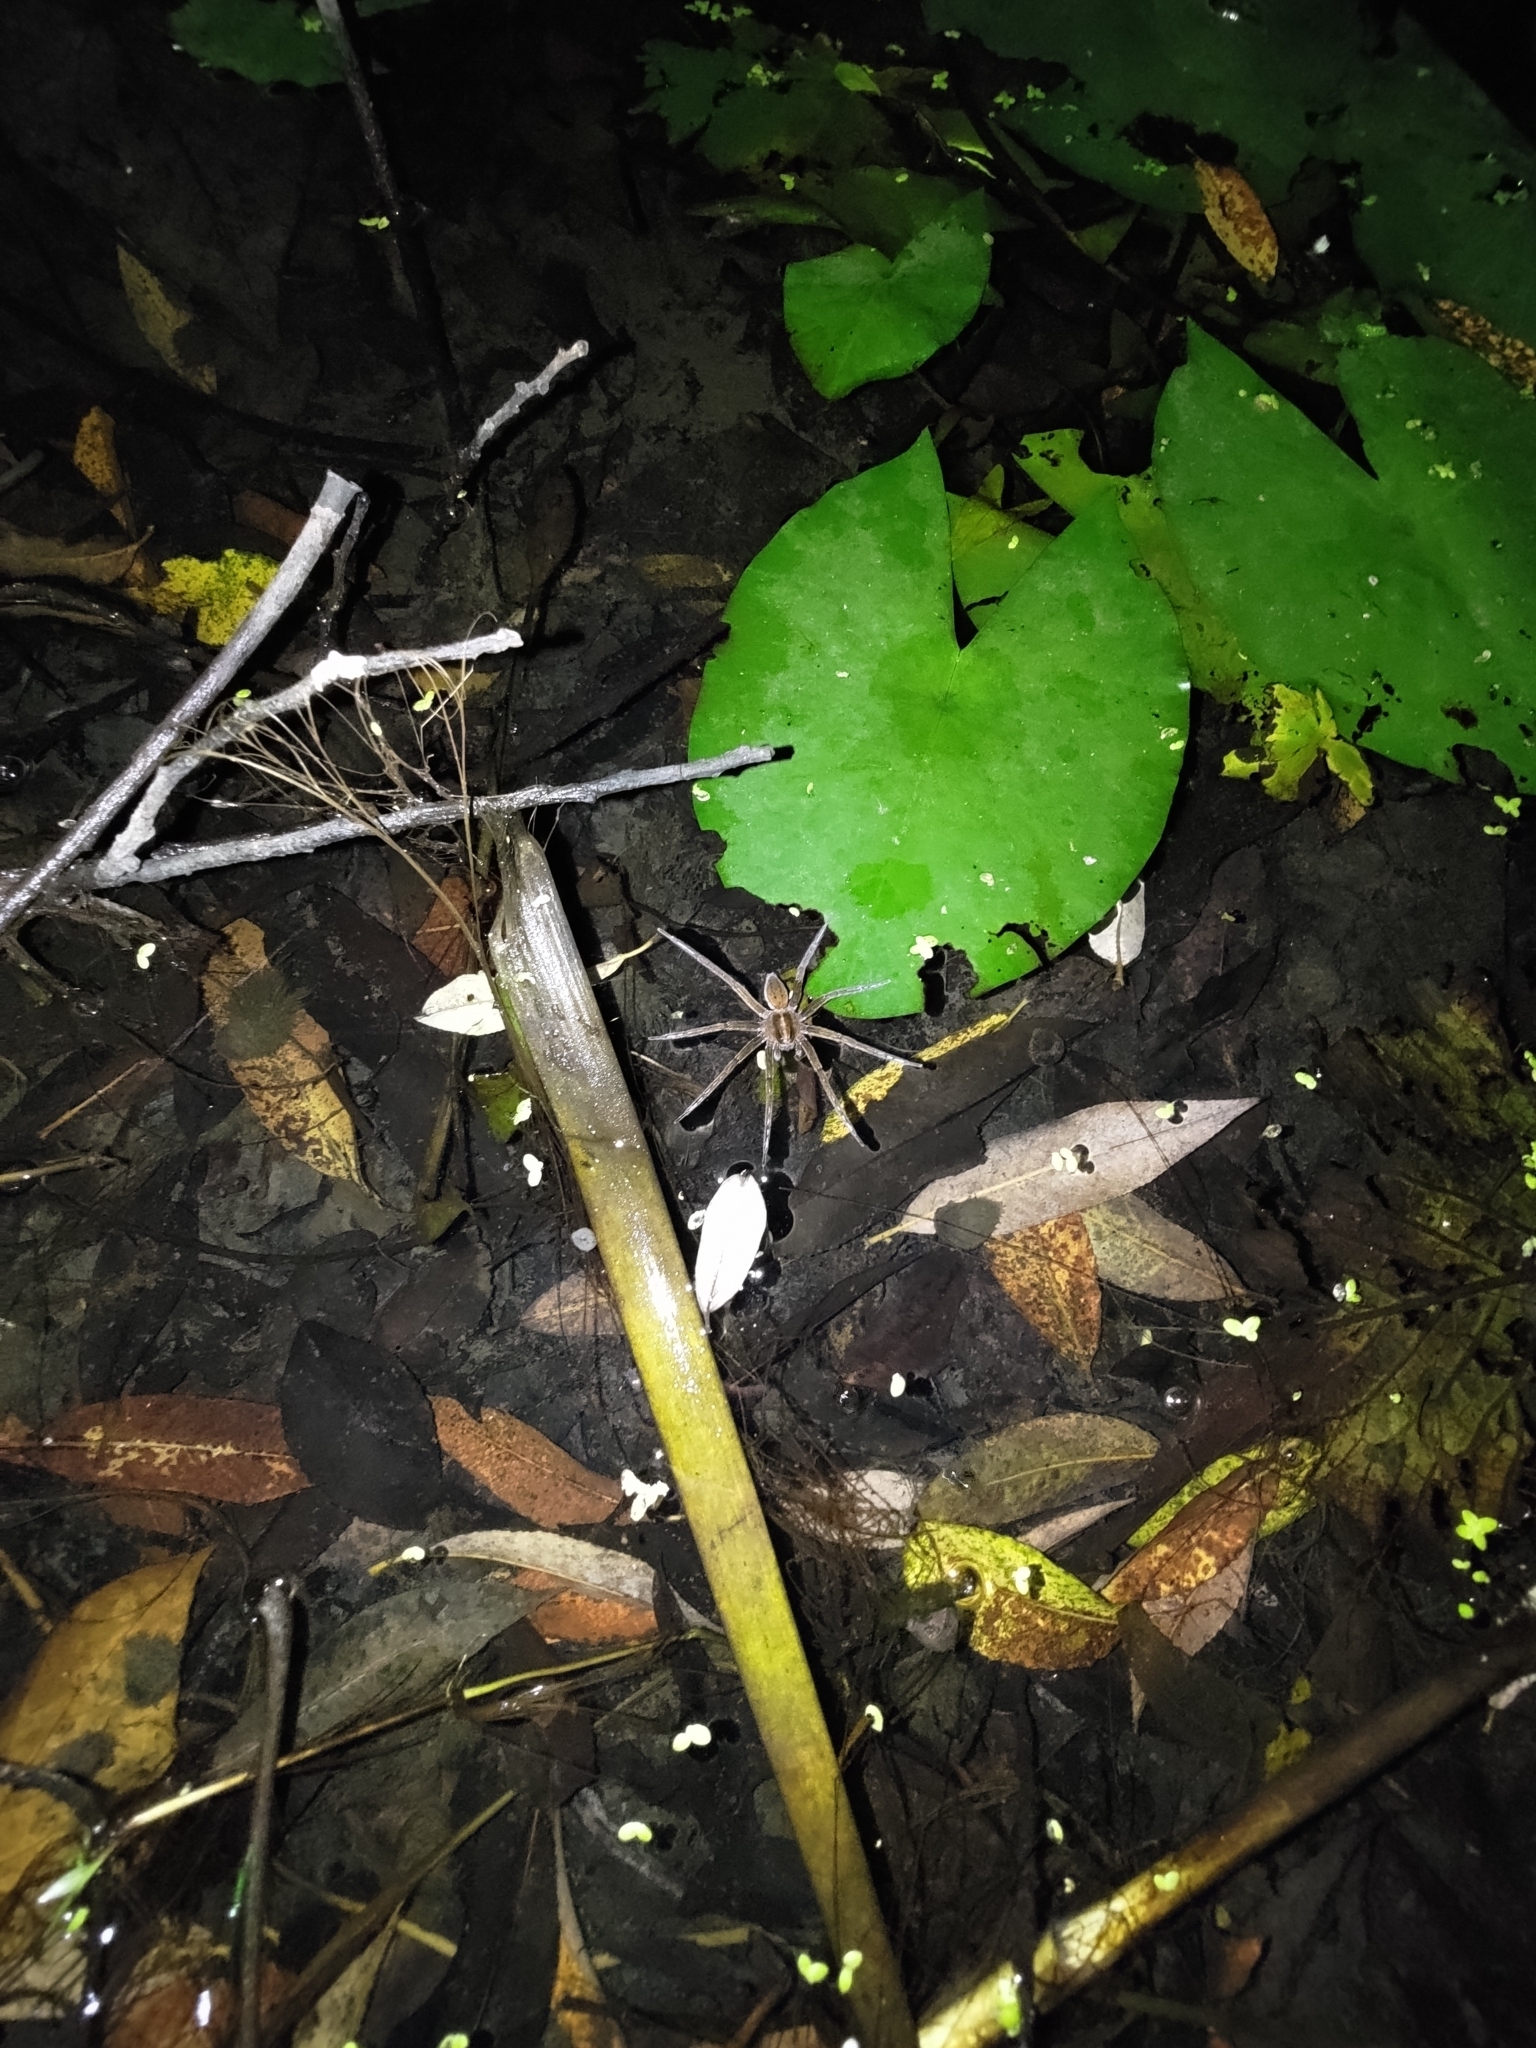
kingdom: Animalia
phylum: Arthropoda
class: Arachnida
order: Araneae
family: Pisauridae
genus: Dolomedes
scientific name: Dolomedes horishanus
